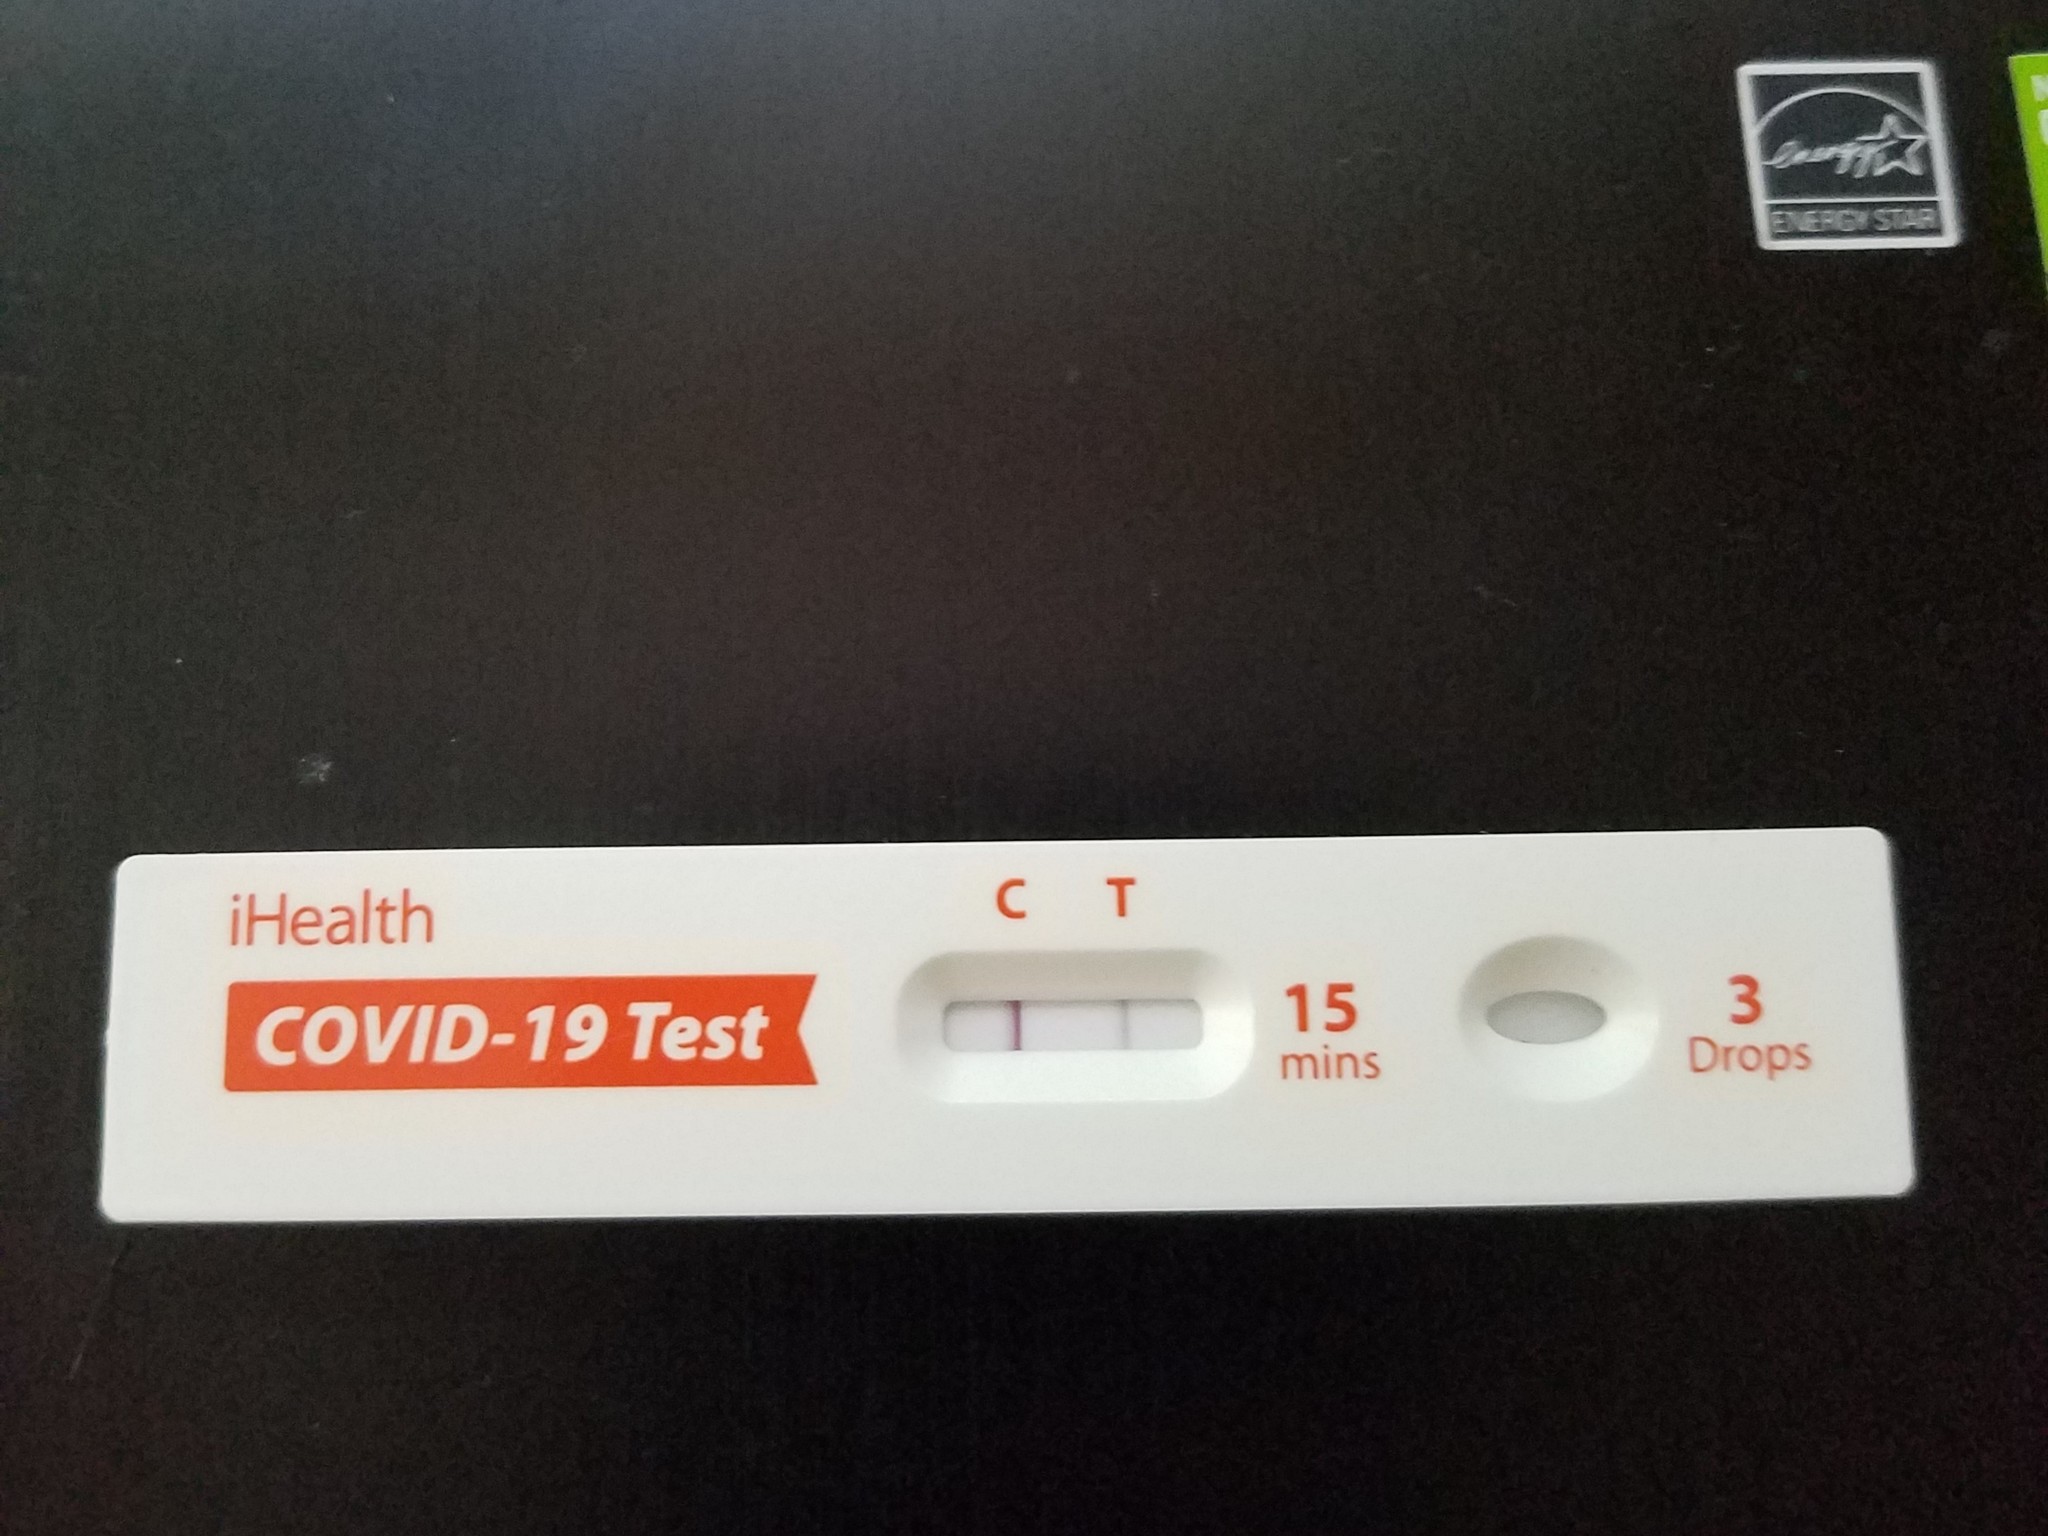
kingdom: Viruses
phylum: Pisuviricota
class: Pisoniviricetes
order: Nidovirales
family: Coronaviridae
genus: Betacoronavirus
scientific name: Betacoronavirus
